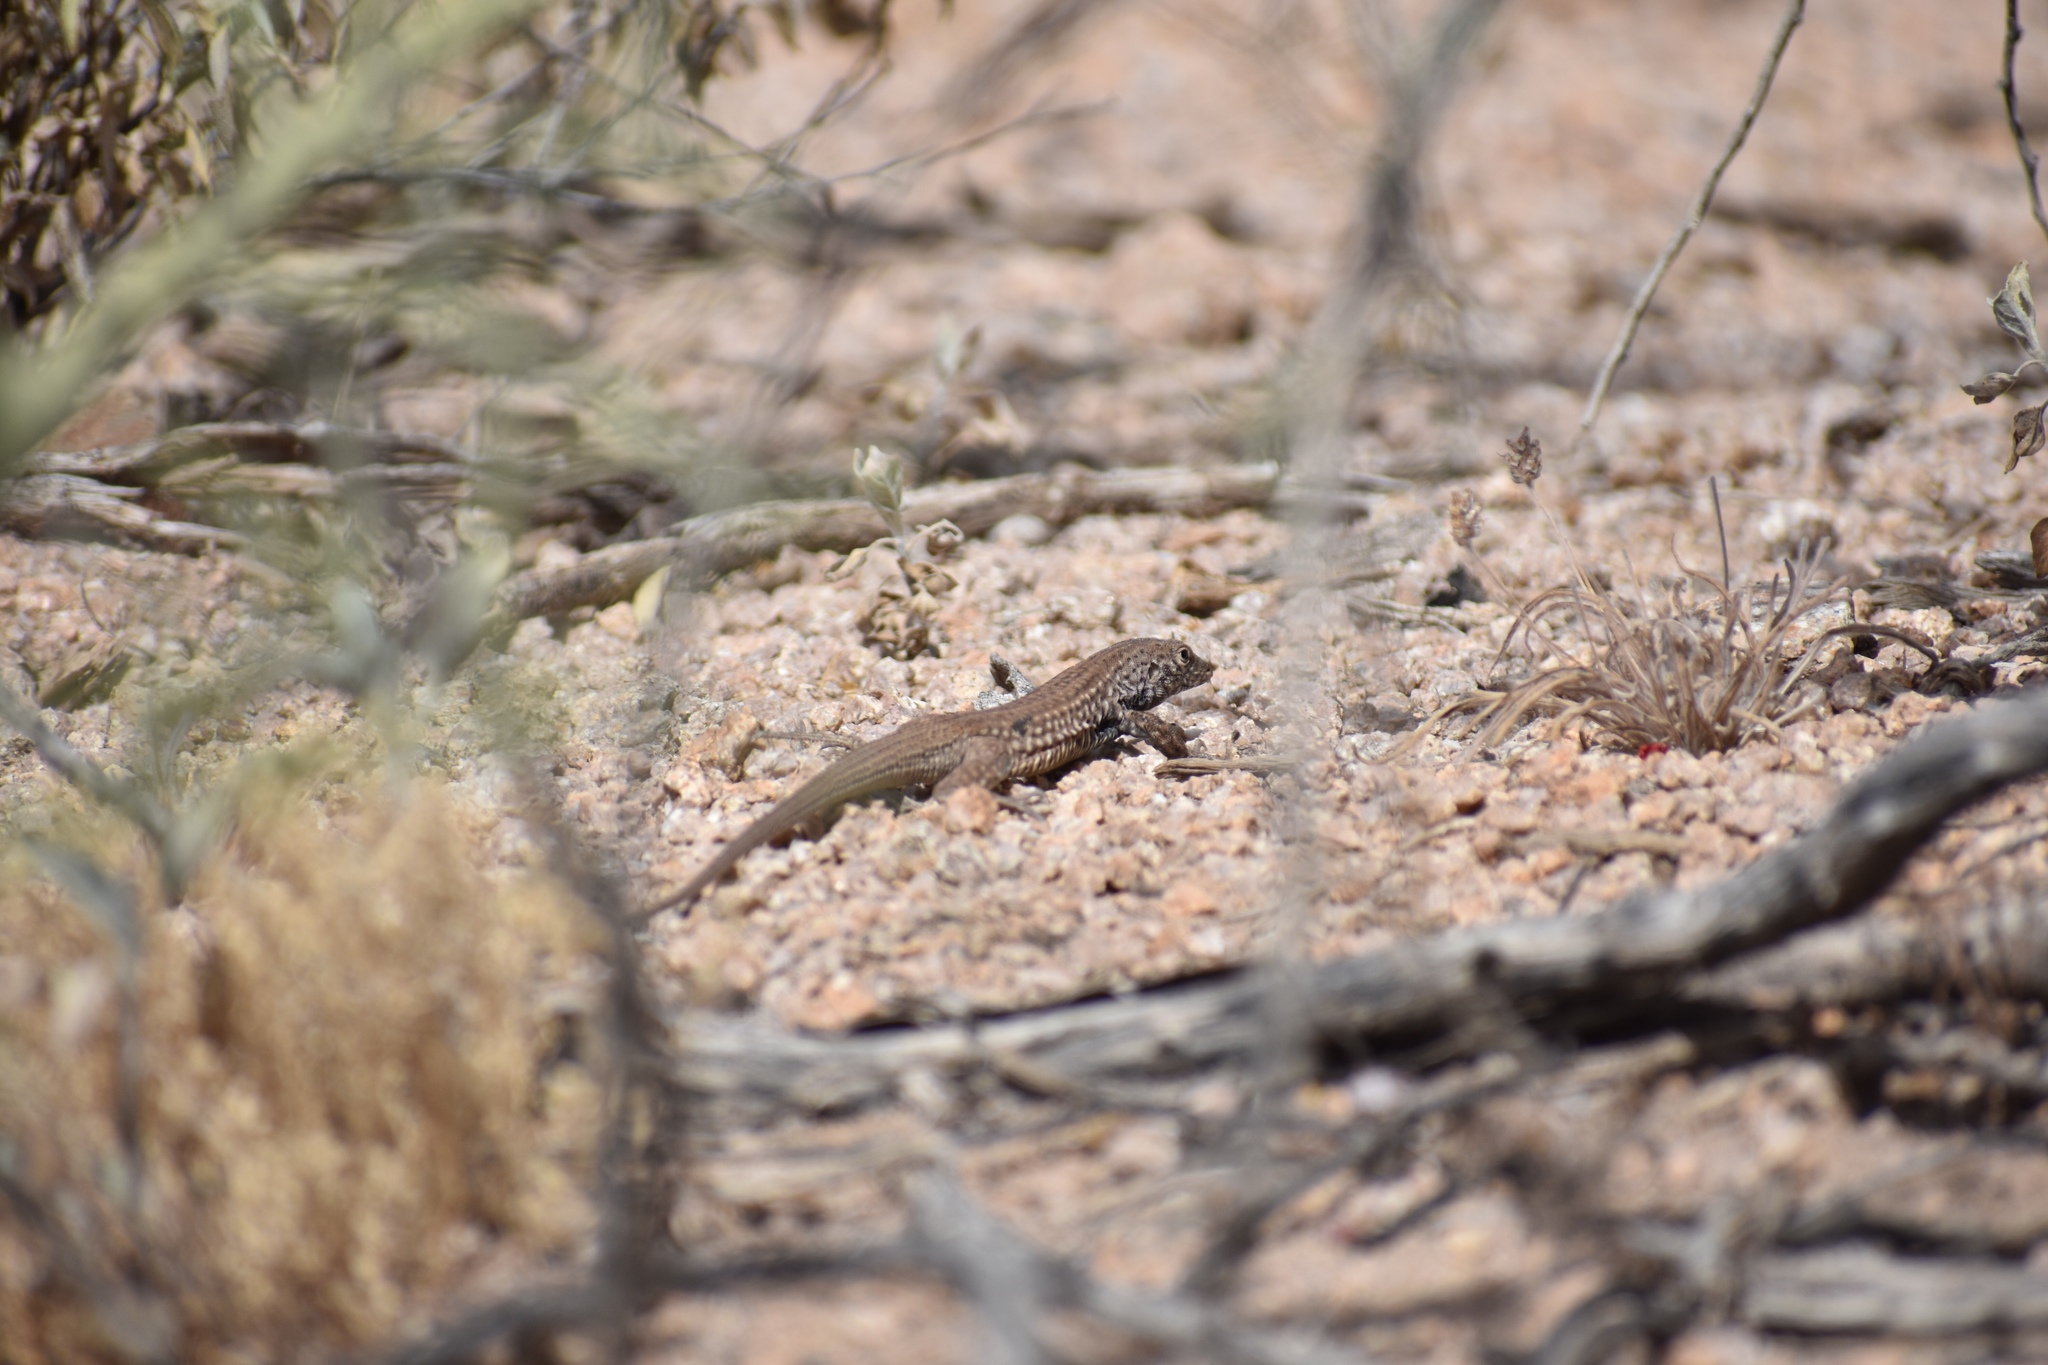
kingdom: Animalia
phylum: Chordata
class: Squamata
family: Teiidae
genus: Aspidoscelis
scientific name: Aspidoscelis tigris
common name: Tiger whiptail
